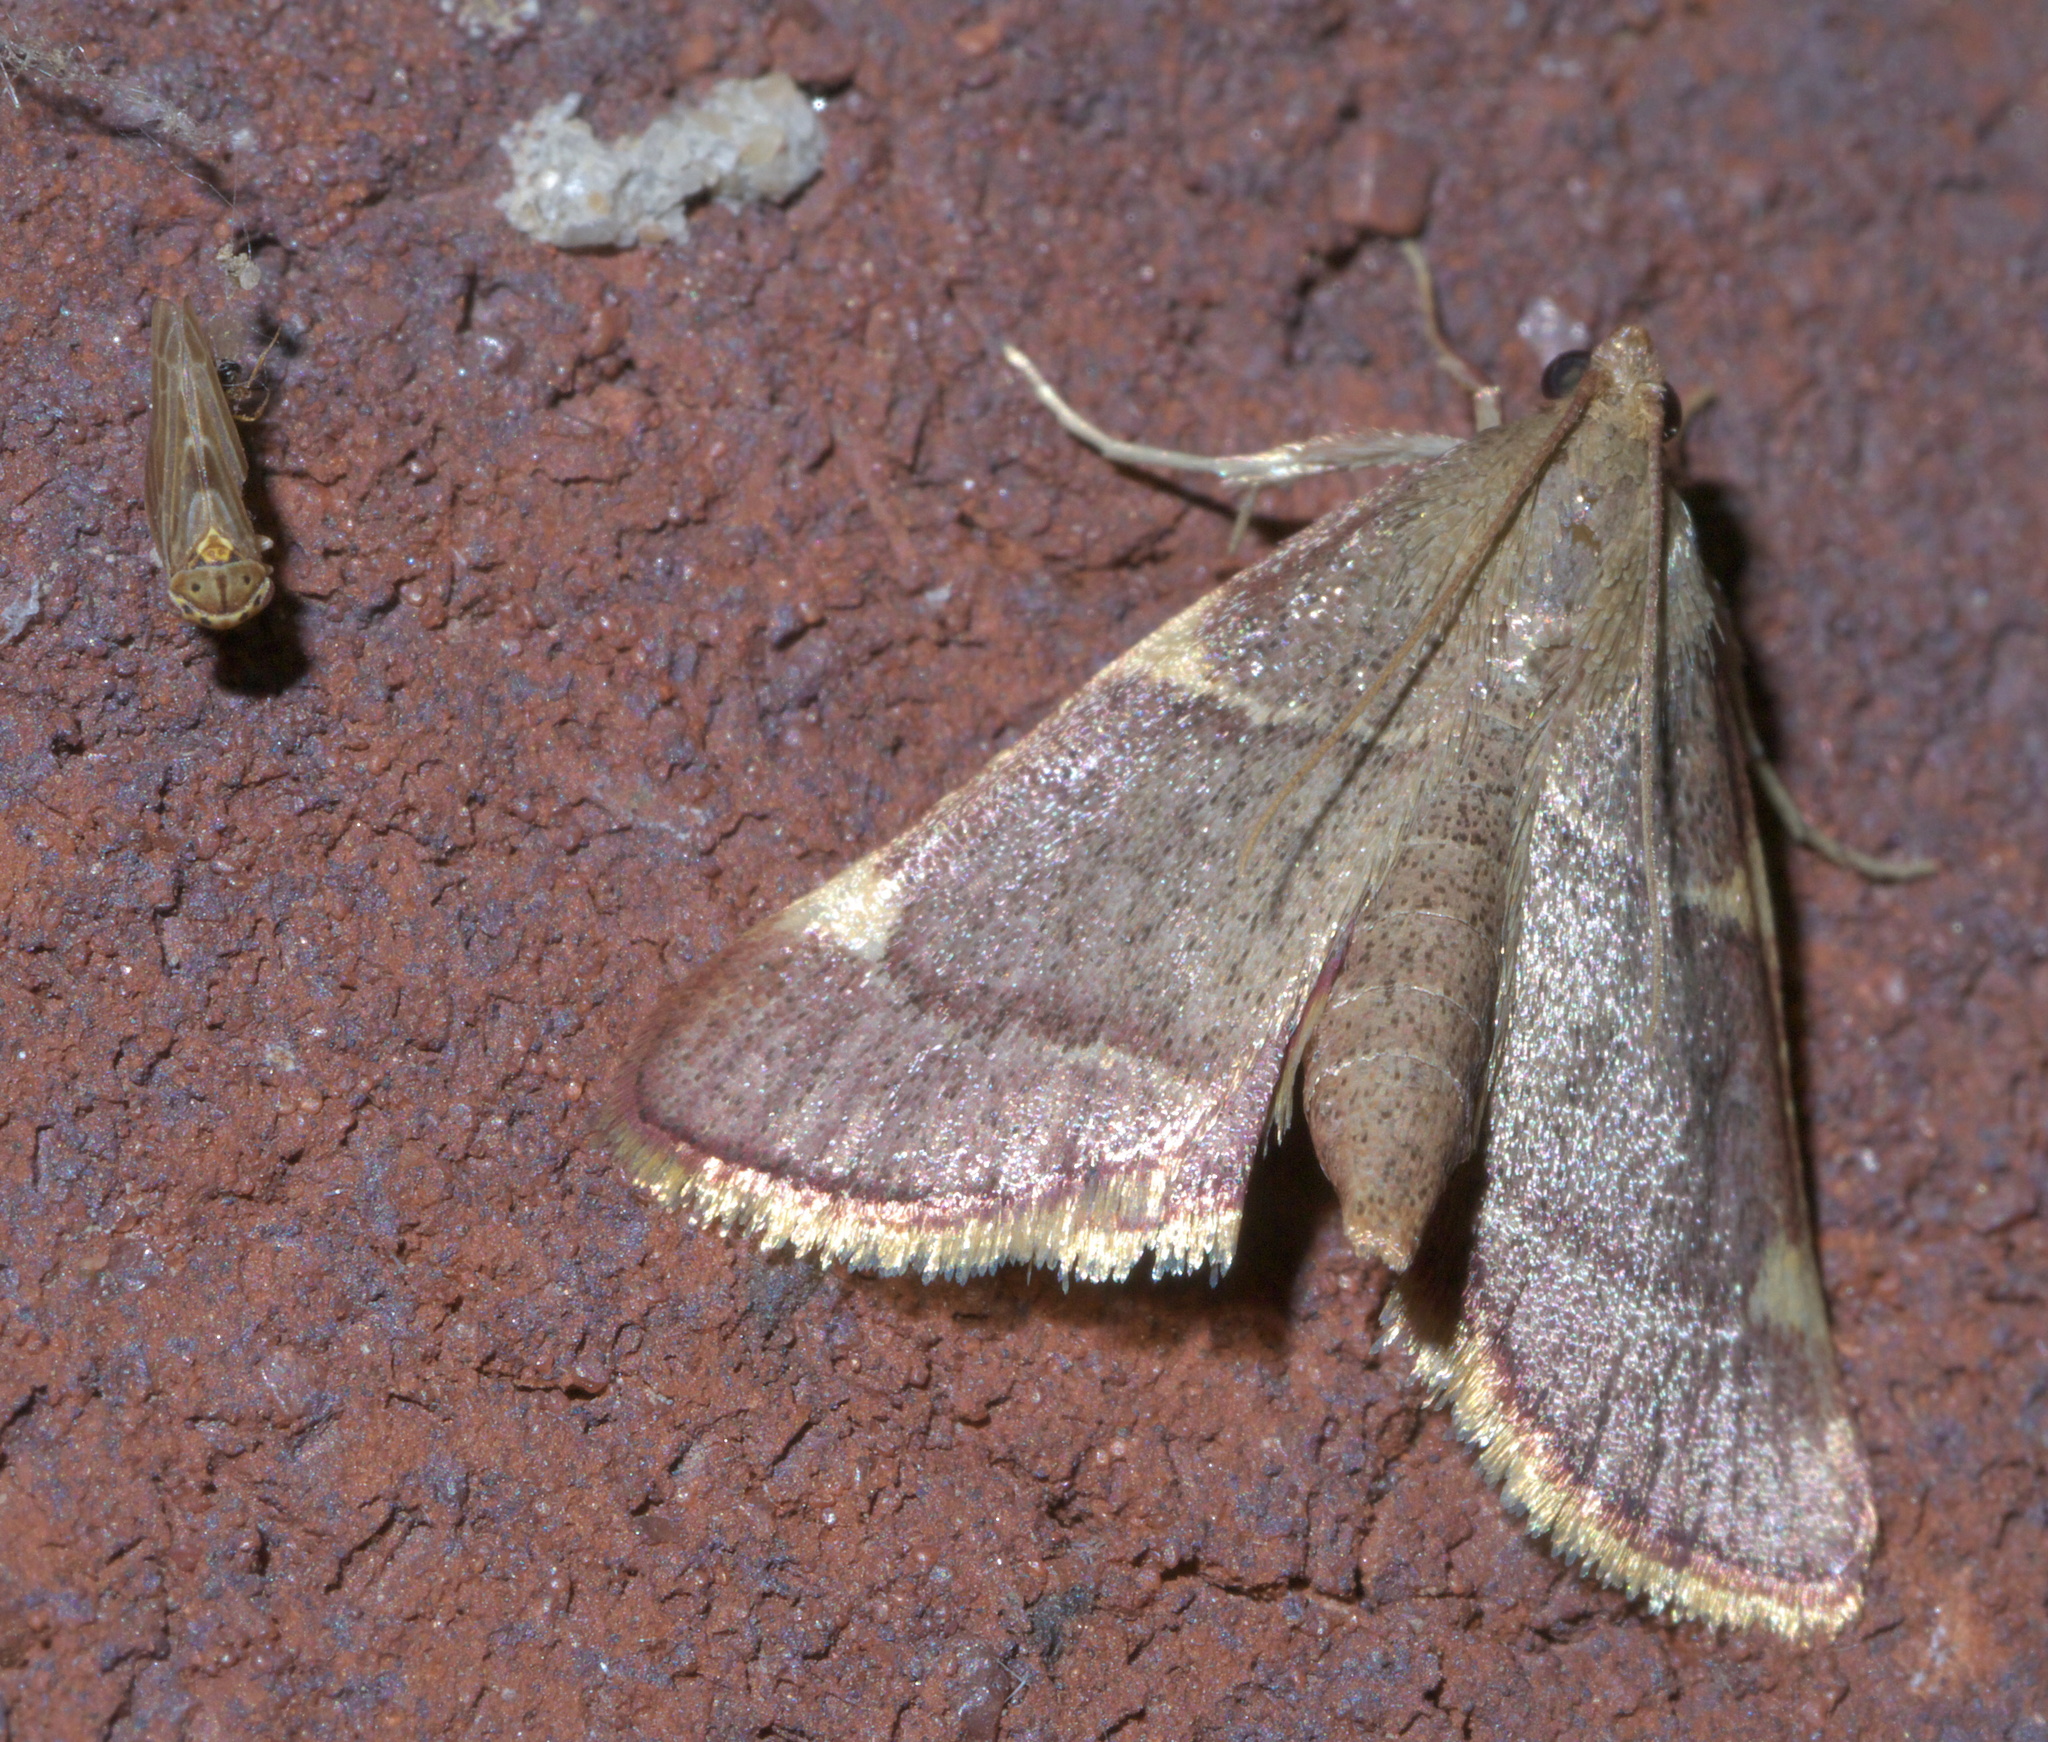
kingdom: Animalia
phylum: Arthropoda
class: Insecta
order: Lepidoptera
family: Pyralidae
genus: Hypsopygia
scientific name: Hypsopygia olinalis
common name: Yellow-fringed dolichomia moth
